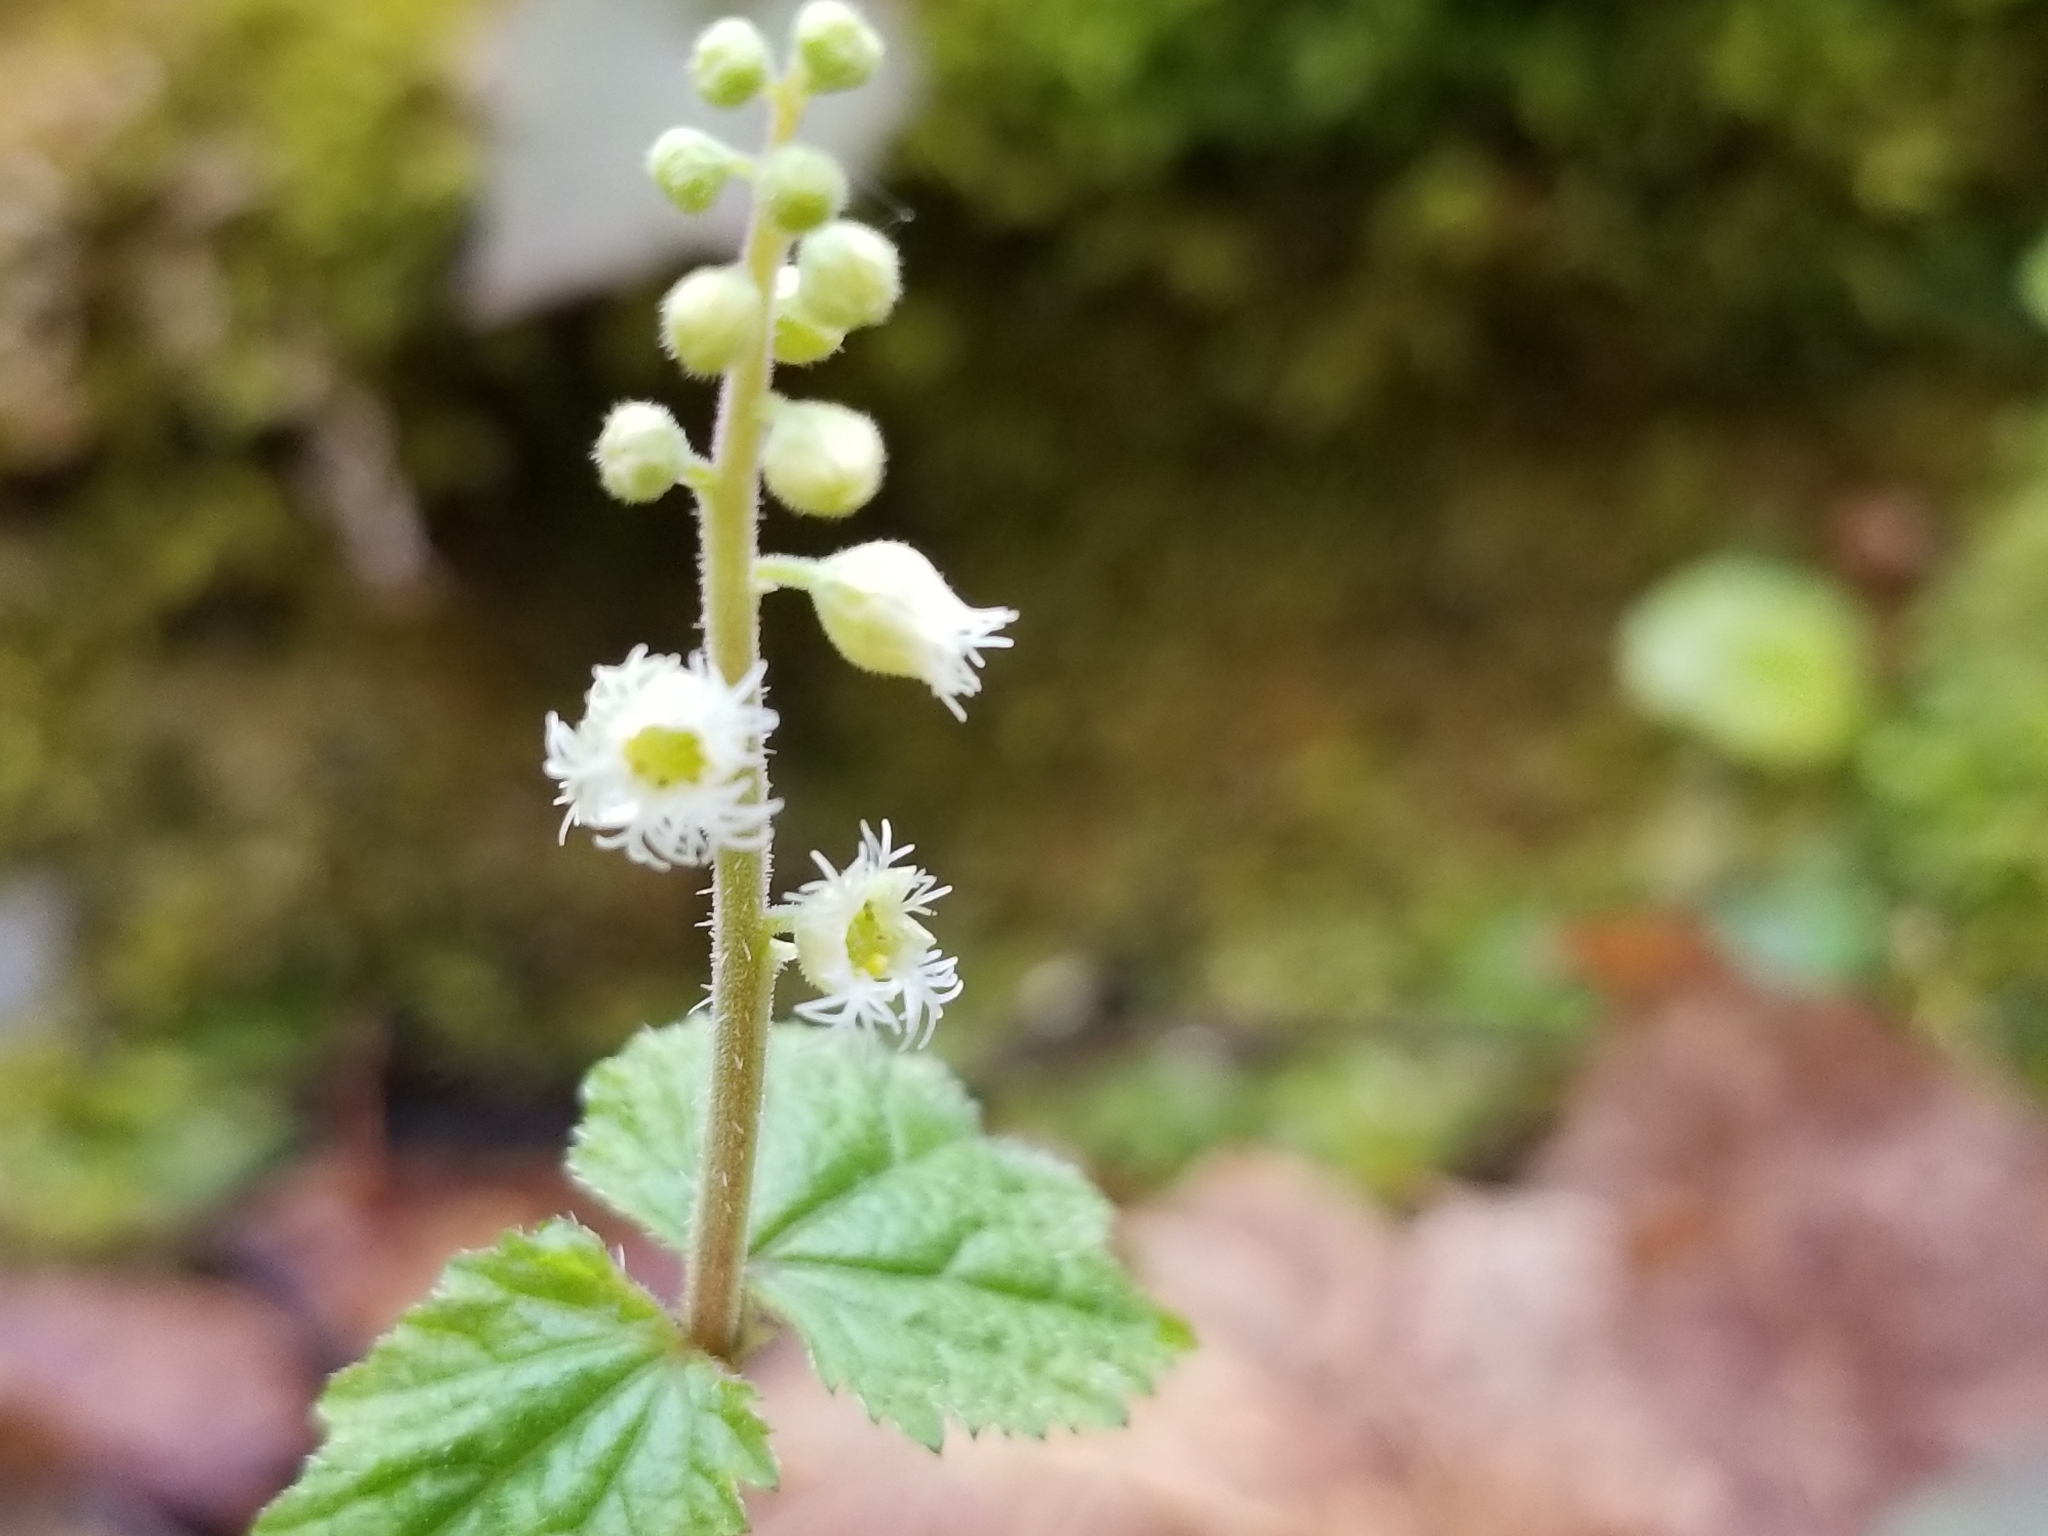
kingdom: Plantae
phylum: Tracheophyta
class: Magnoliopsida
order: Saxifragales
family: Saxifragaceae
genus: Mitella
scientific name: Mitella diphylla
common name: Coolwort
